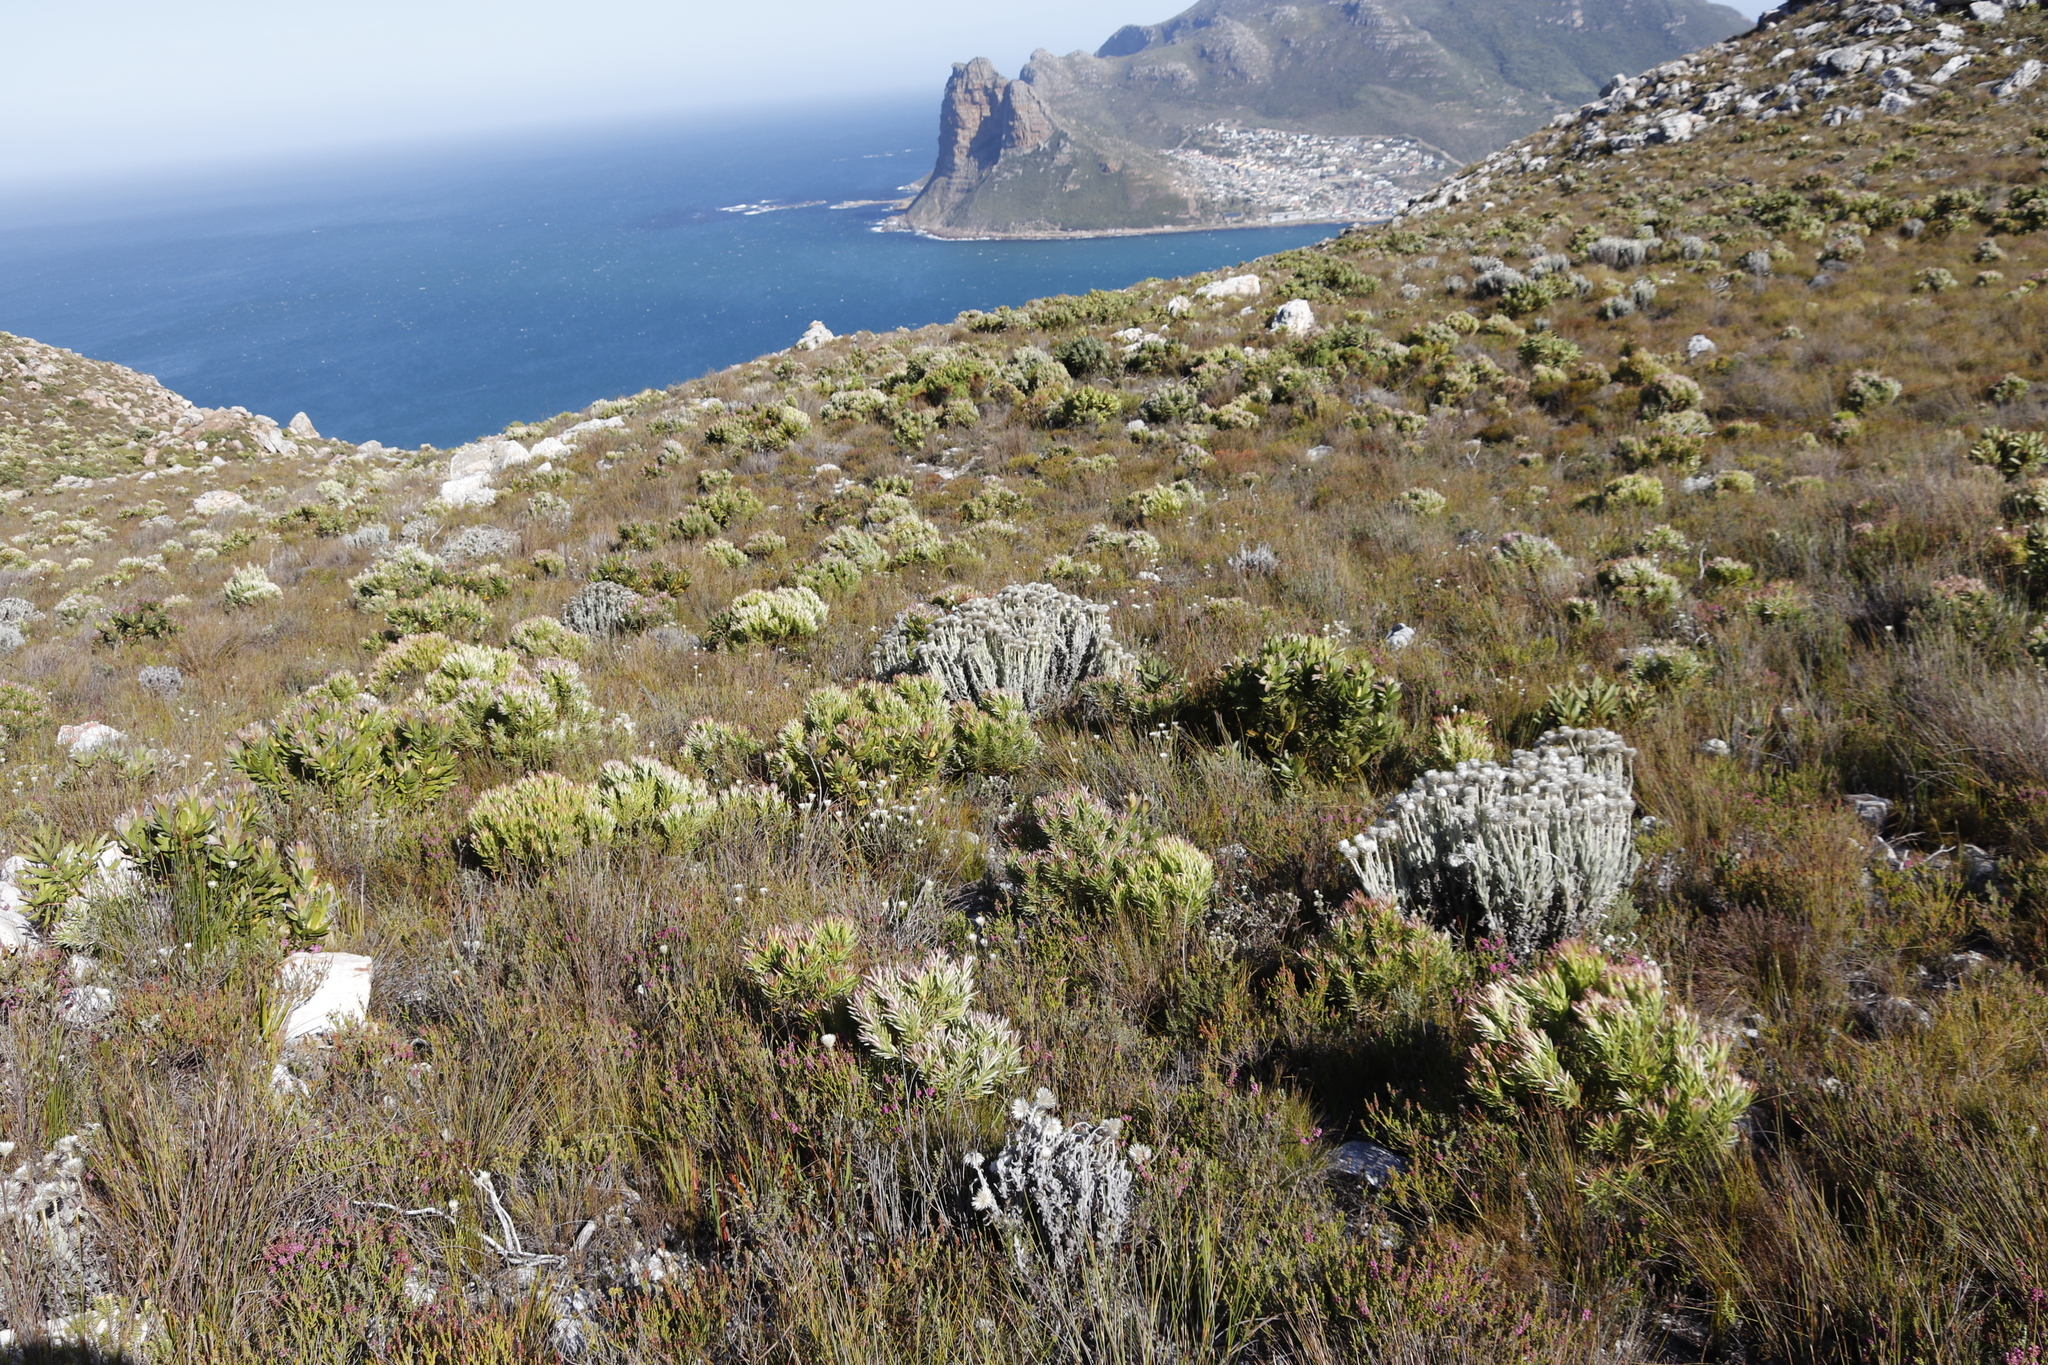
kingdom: Plantae
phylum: Tracheophyta
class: Magnoliopsida
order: Asterales
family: Asteraceae
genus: Syncarpha
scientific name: Syncarpha vestita
